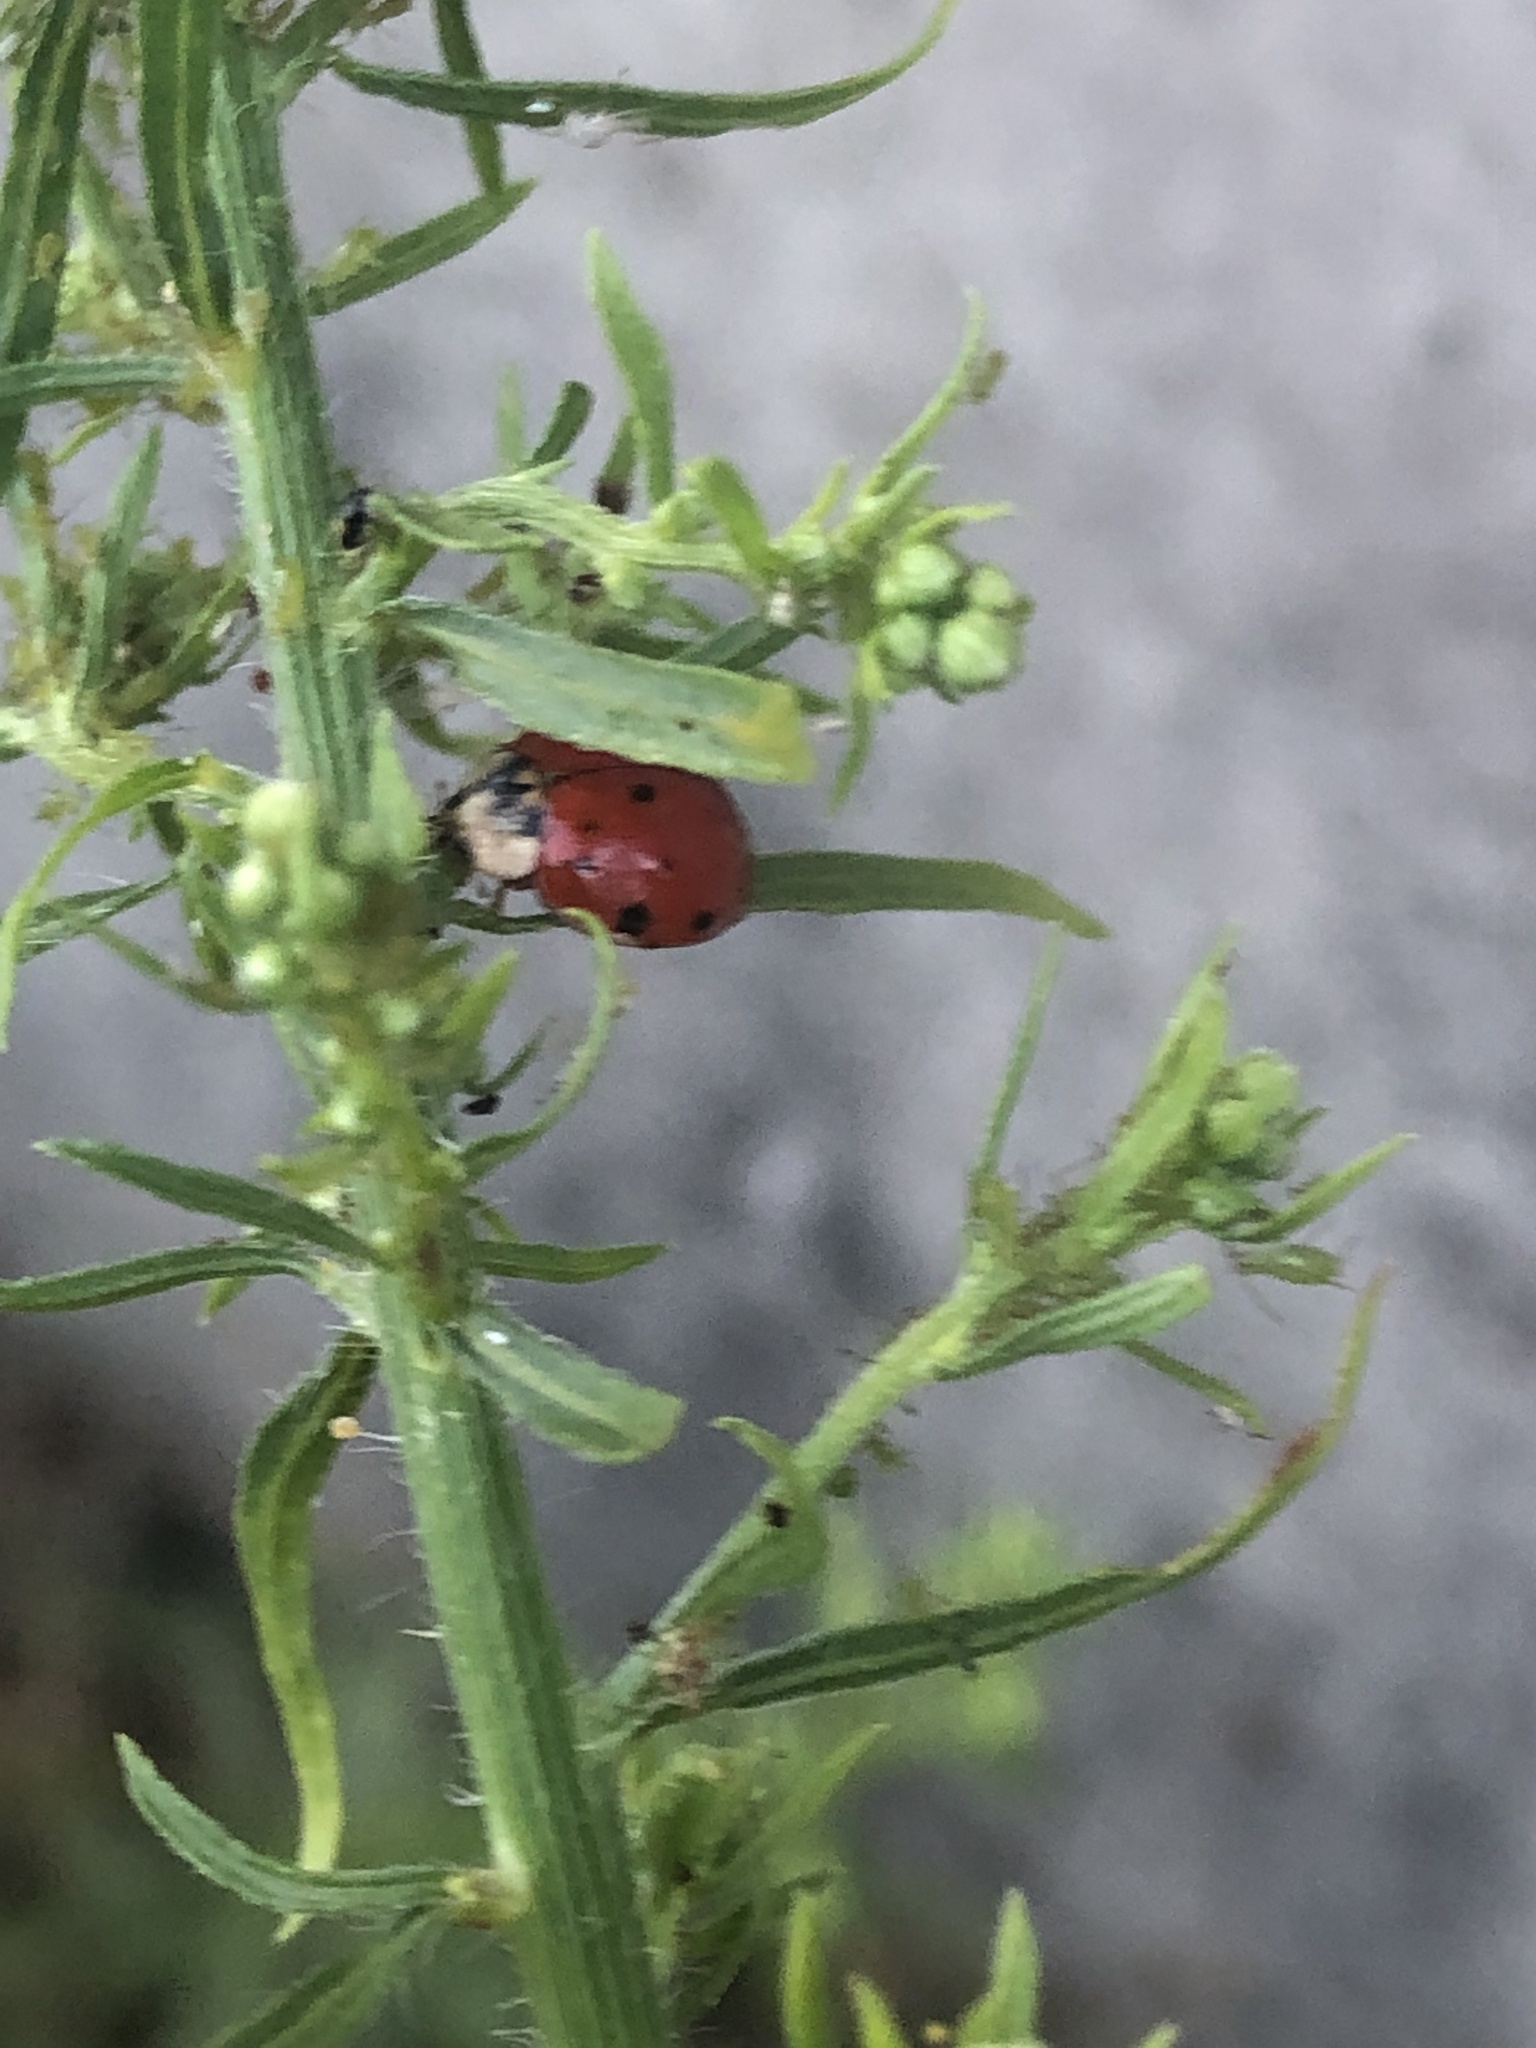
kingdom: Animalia
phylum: Arthropoda
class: Insecta
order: Coleoptera
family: Coccinellidae
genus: Harmonia
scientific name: Harmonia axyridis
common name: Harlequin ladybird
